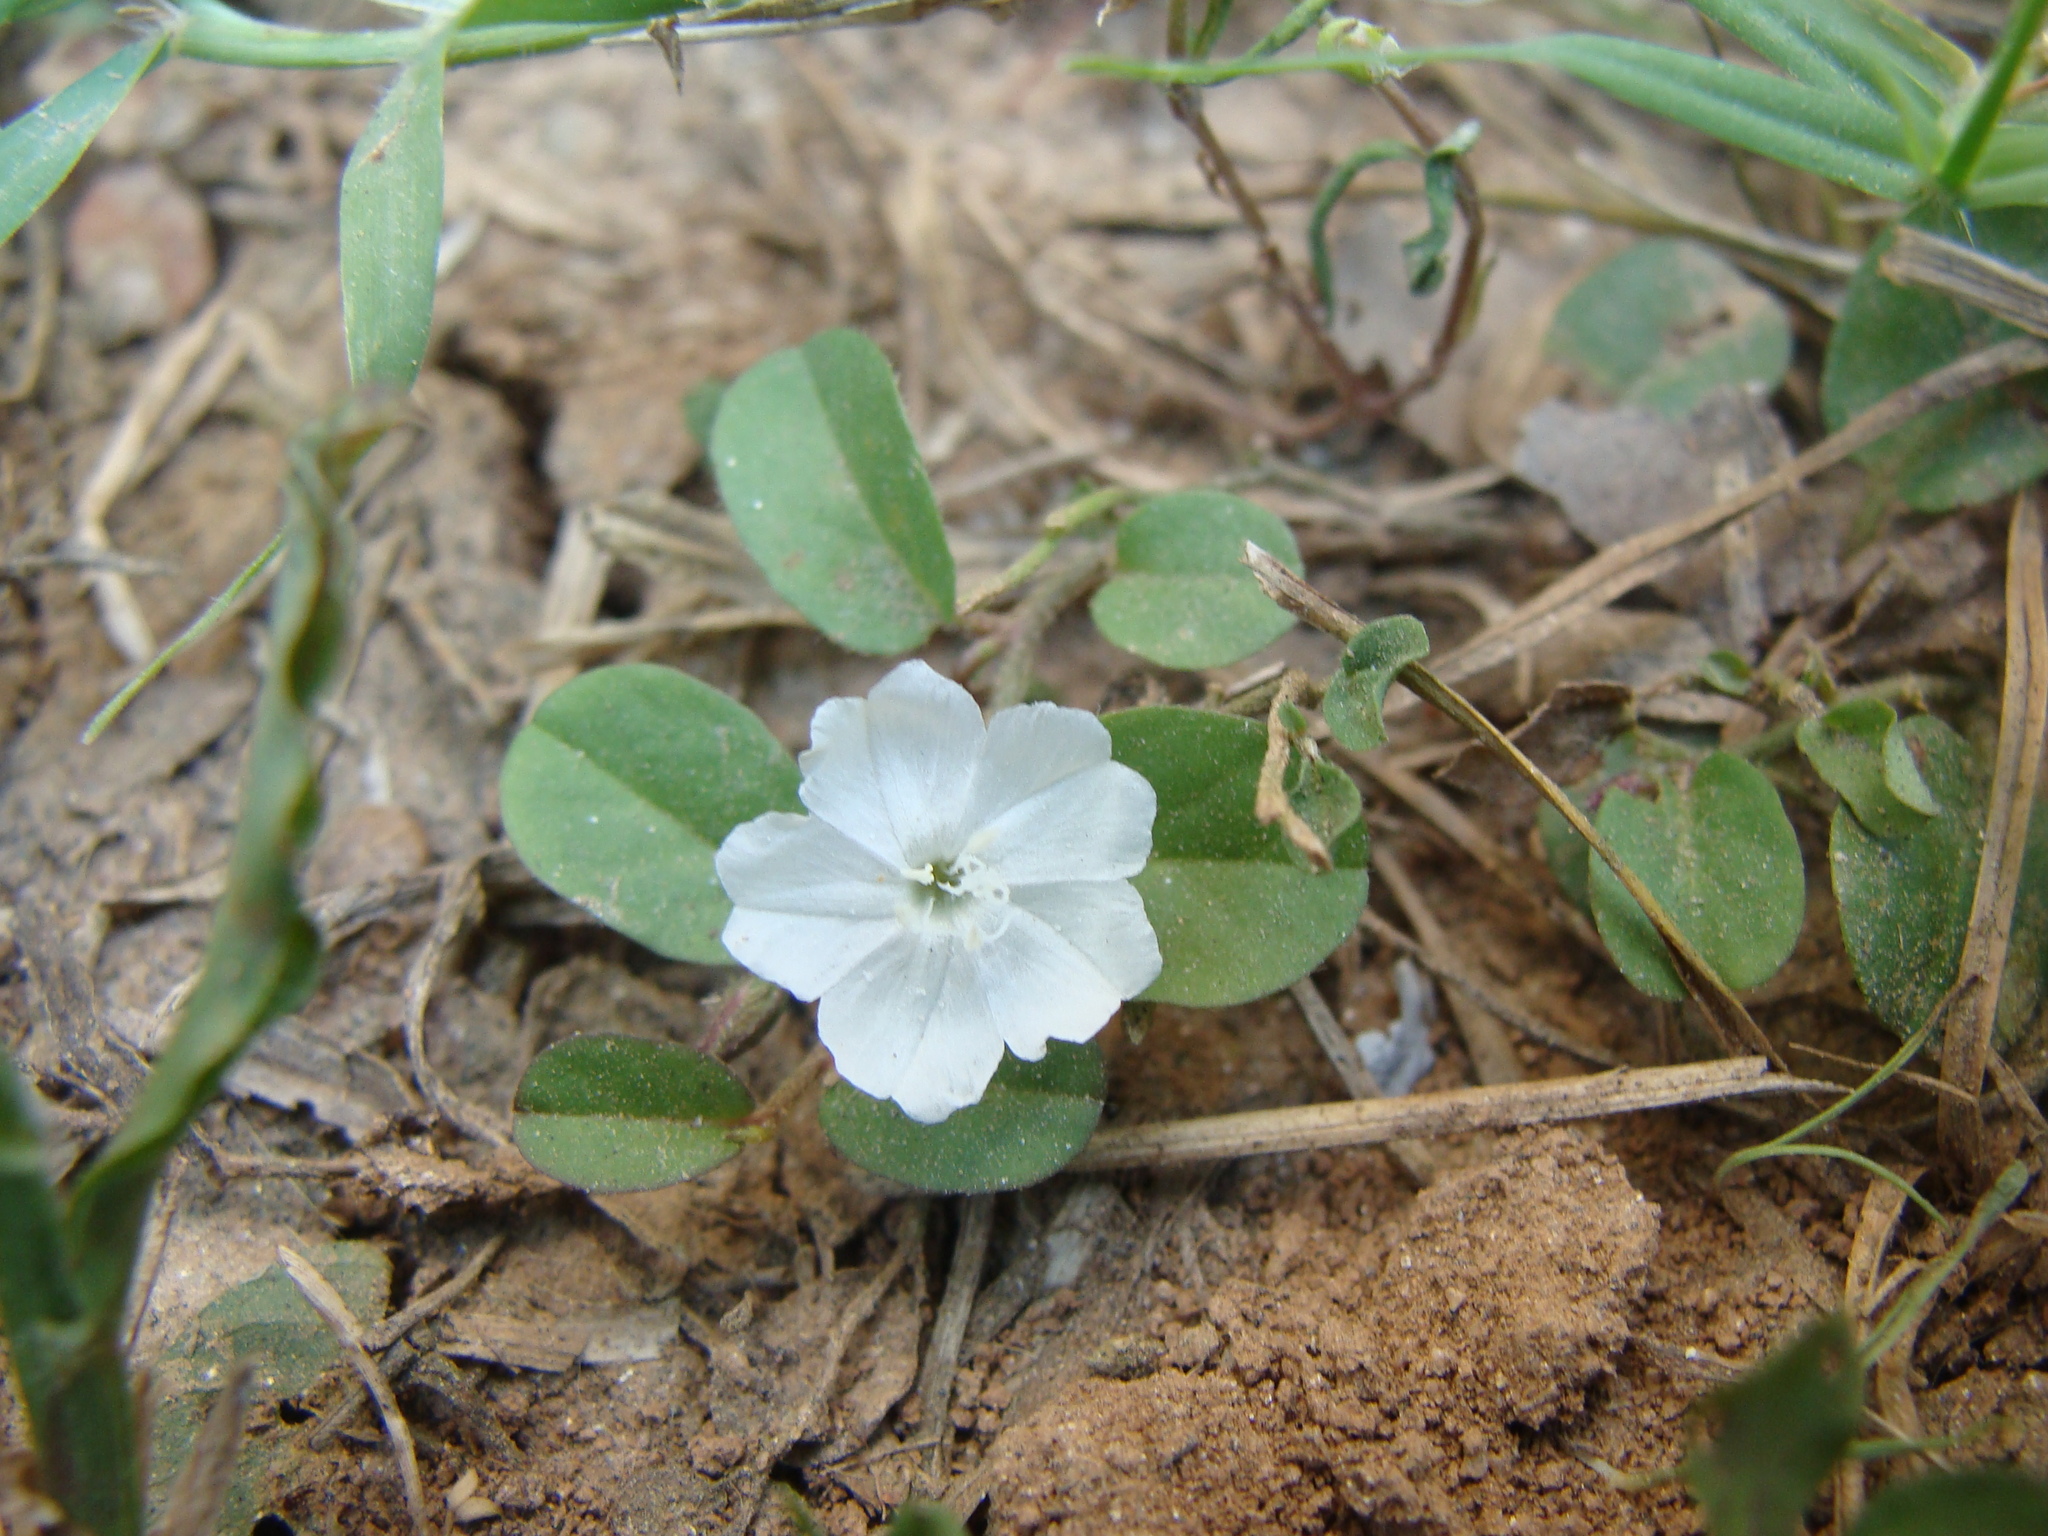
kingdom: Plantae
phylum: Tracheophyta
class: Magnoliopsida
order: Solanales
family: Convolvulaceae
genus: Evolvulus
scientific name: Evolvulus nummularius
